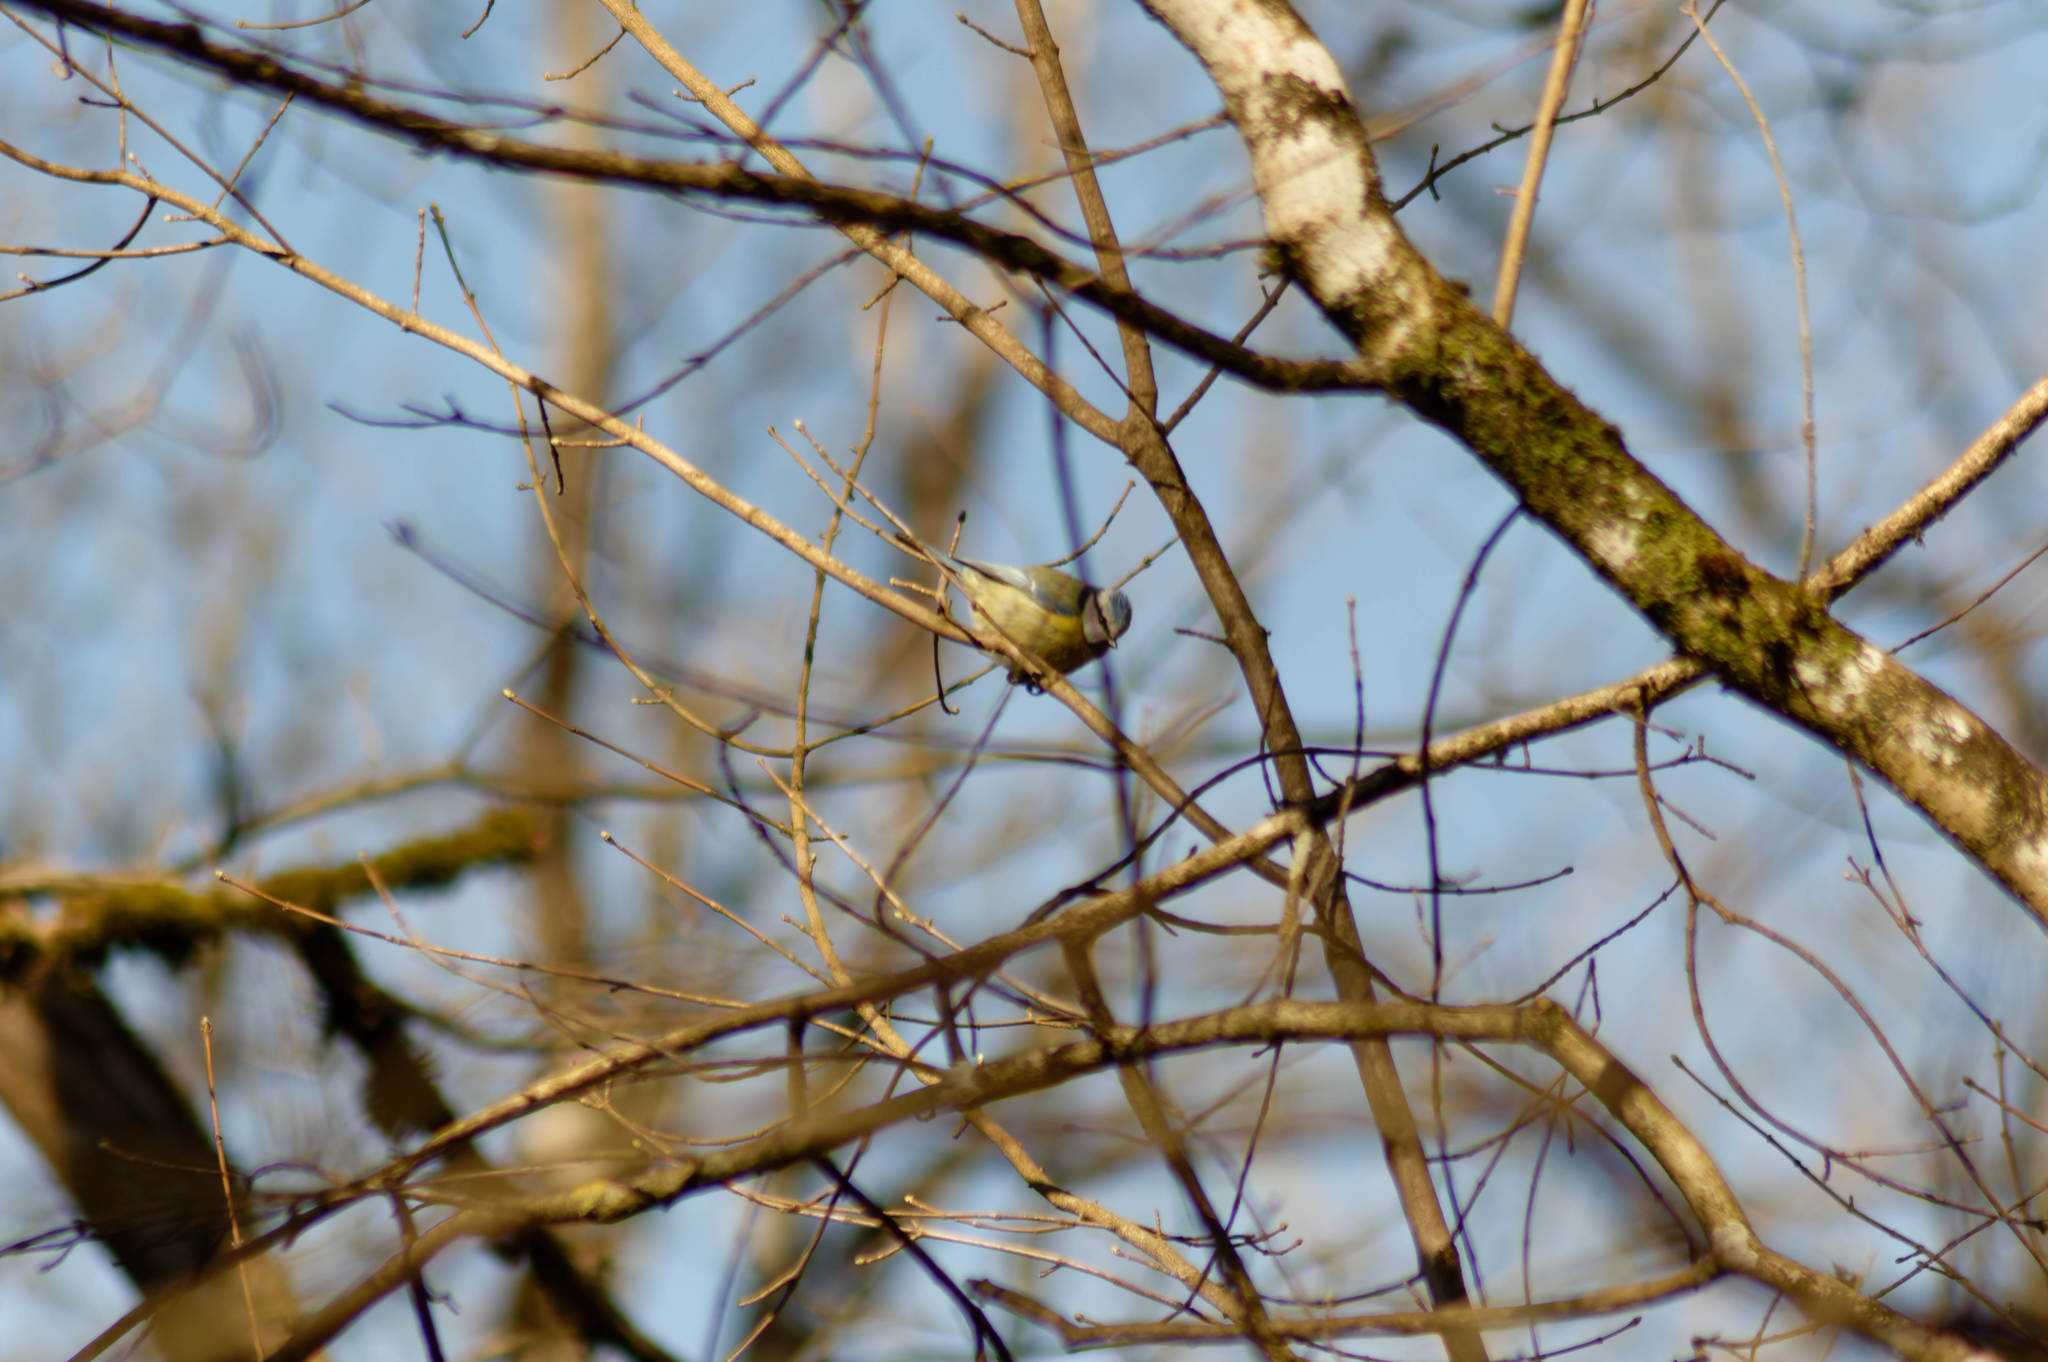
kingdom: Animalia
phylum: Chordata
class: Aves
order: Passeriformes
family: Paridae
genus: Cyanistes
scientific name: Cyanistes caeruleus
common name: Eurasian blue tit
